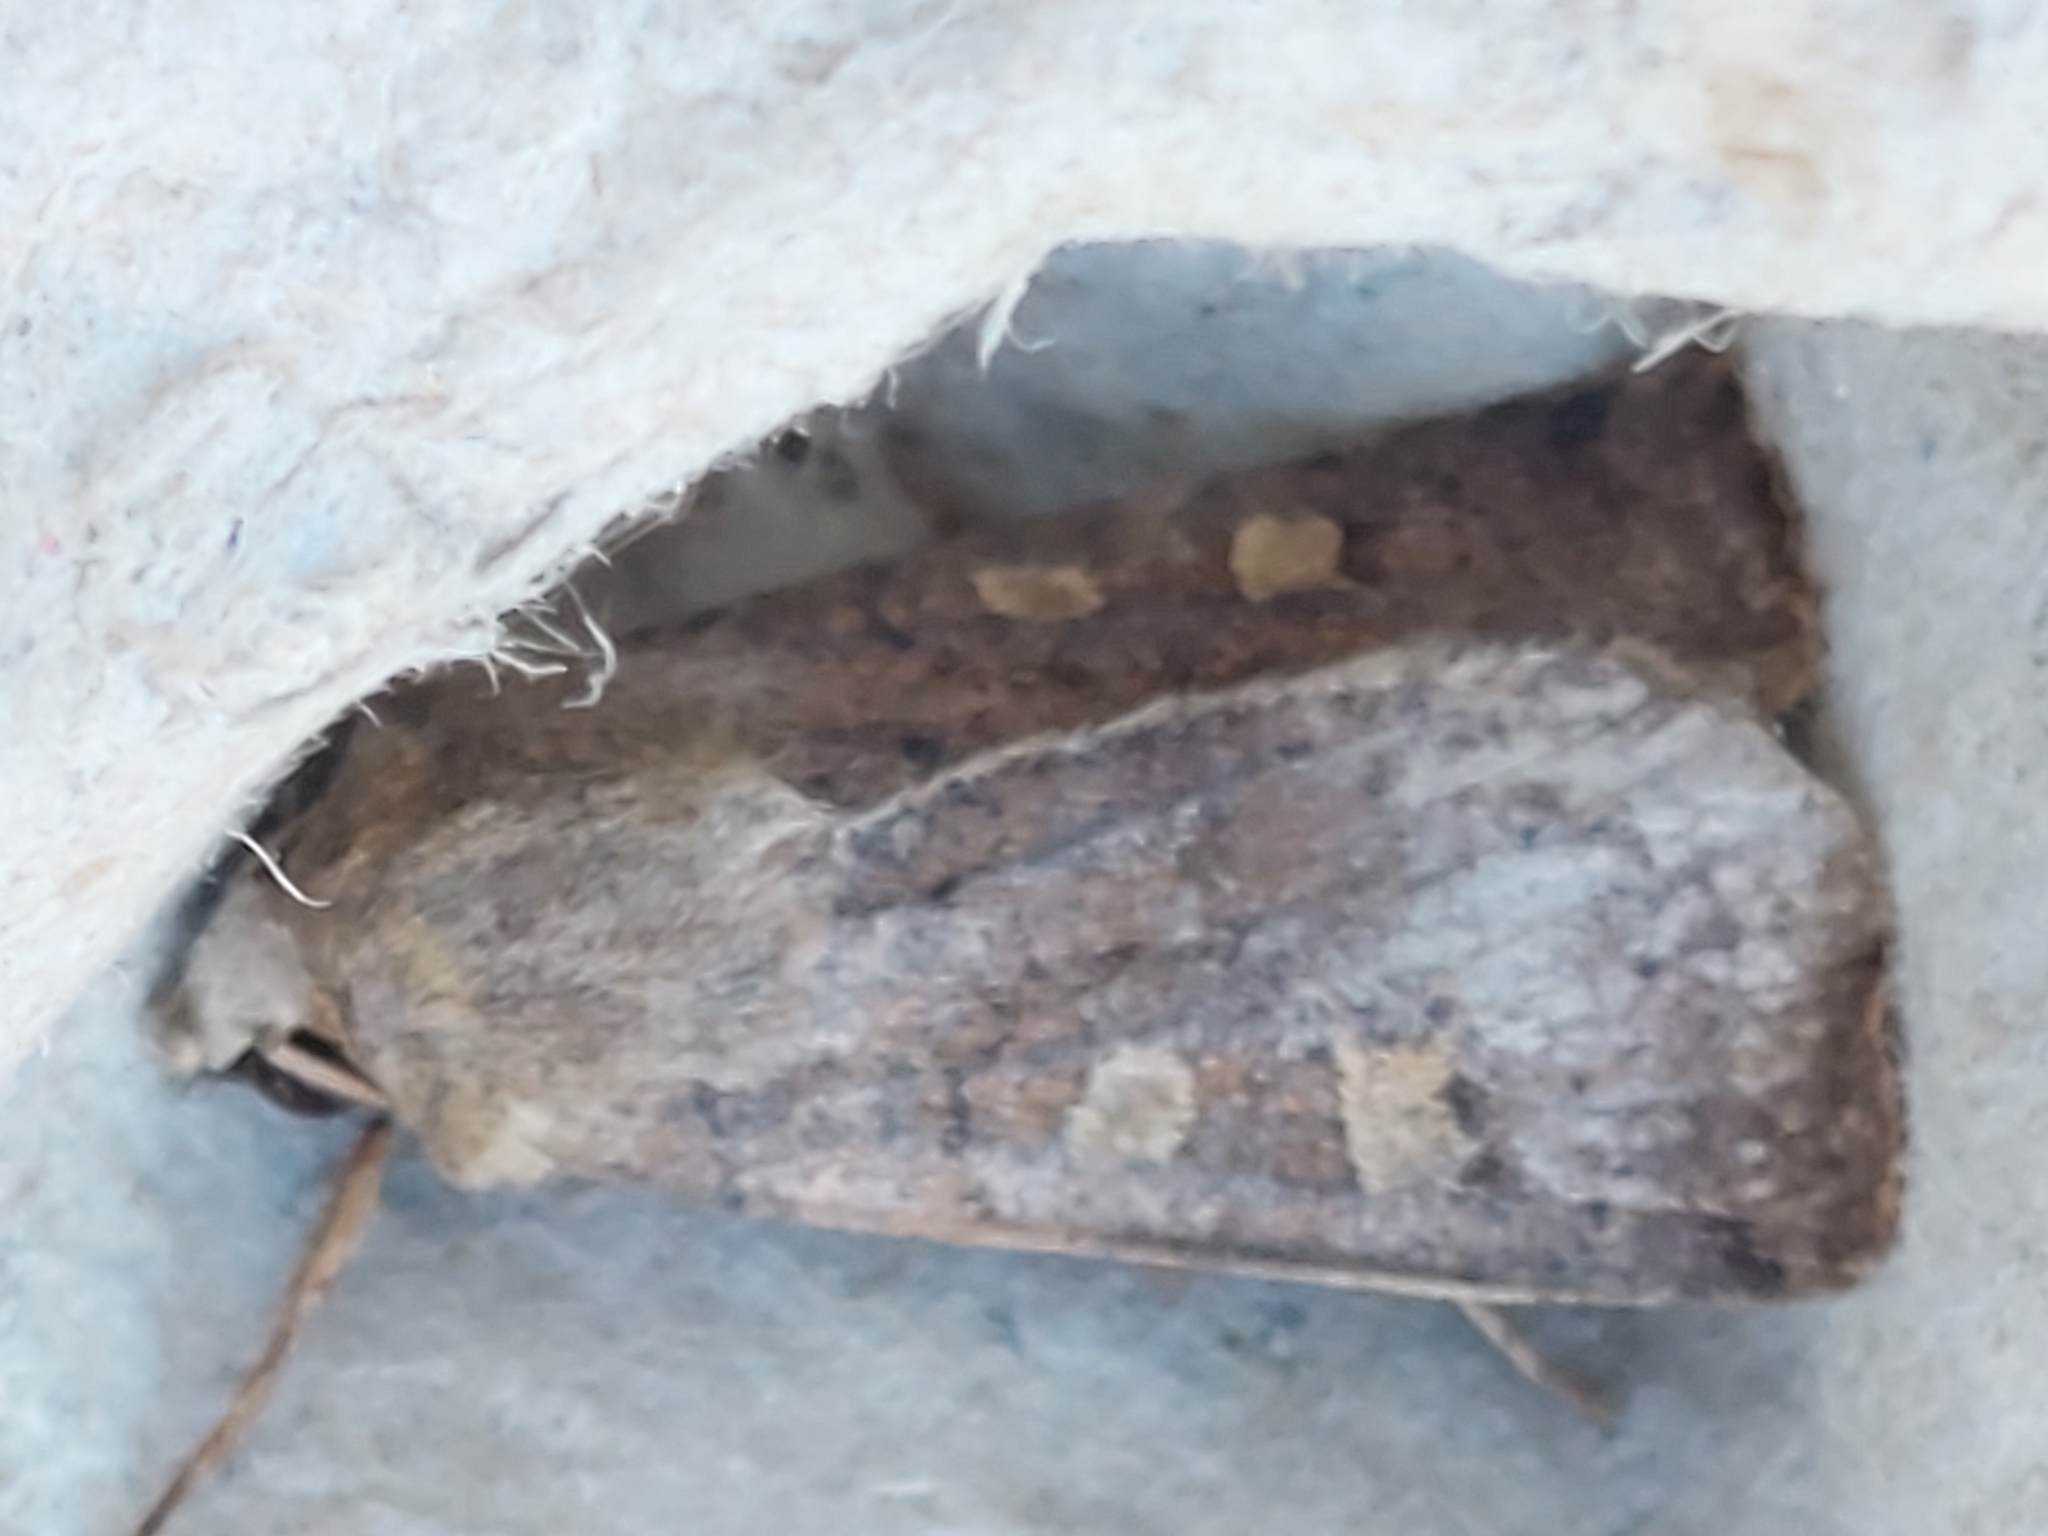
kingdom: Animalia
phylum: Arthropoda
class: Insecta
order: Lepidoptera
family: Noctuidae
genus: Xestia
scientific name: Xestia xanthographa
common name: Square-spot rustic
